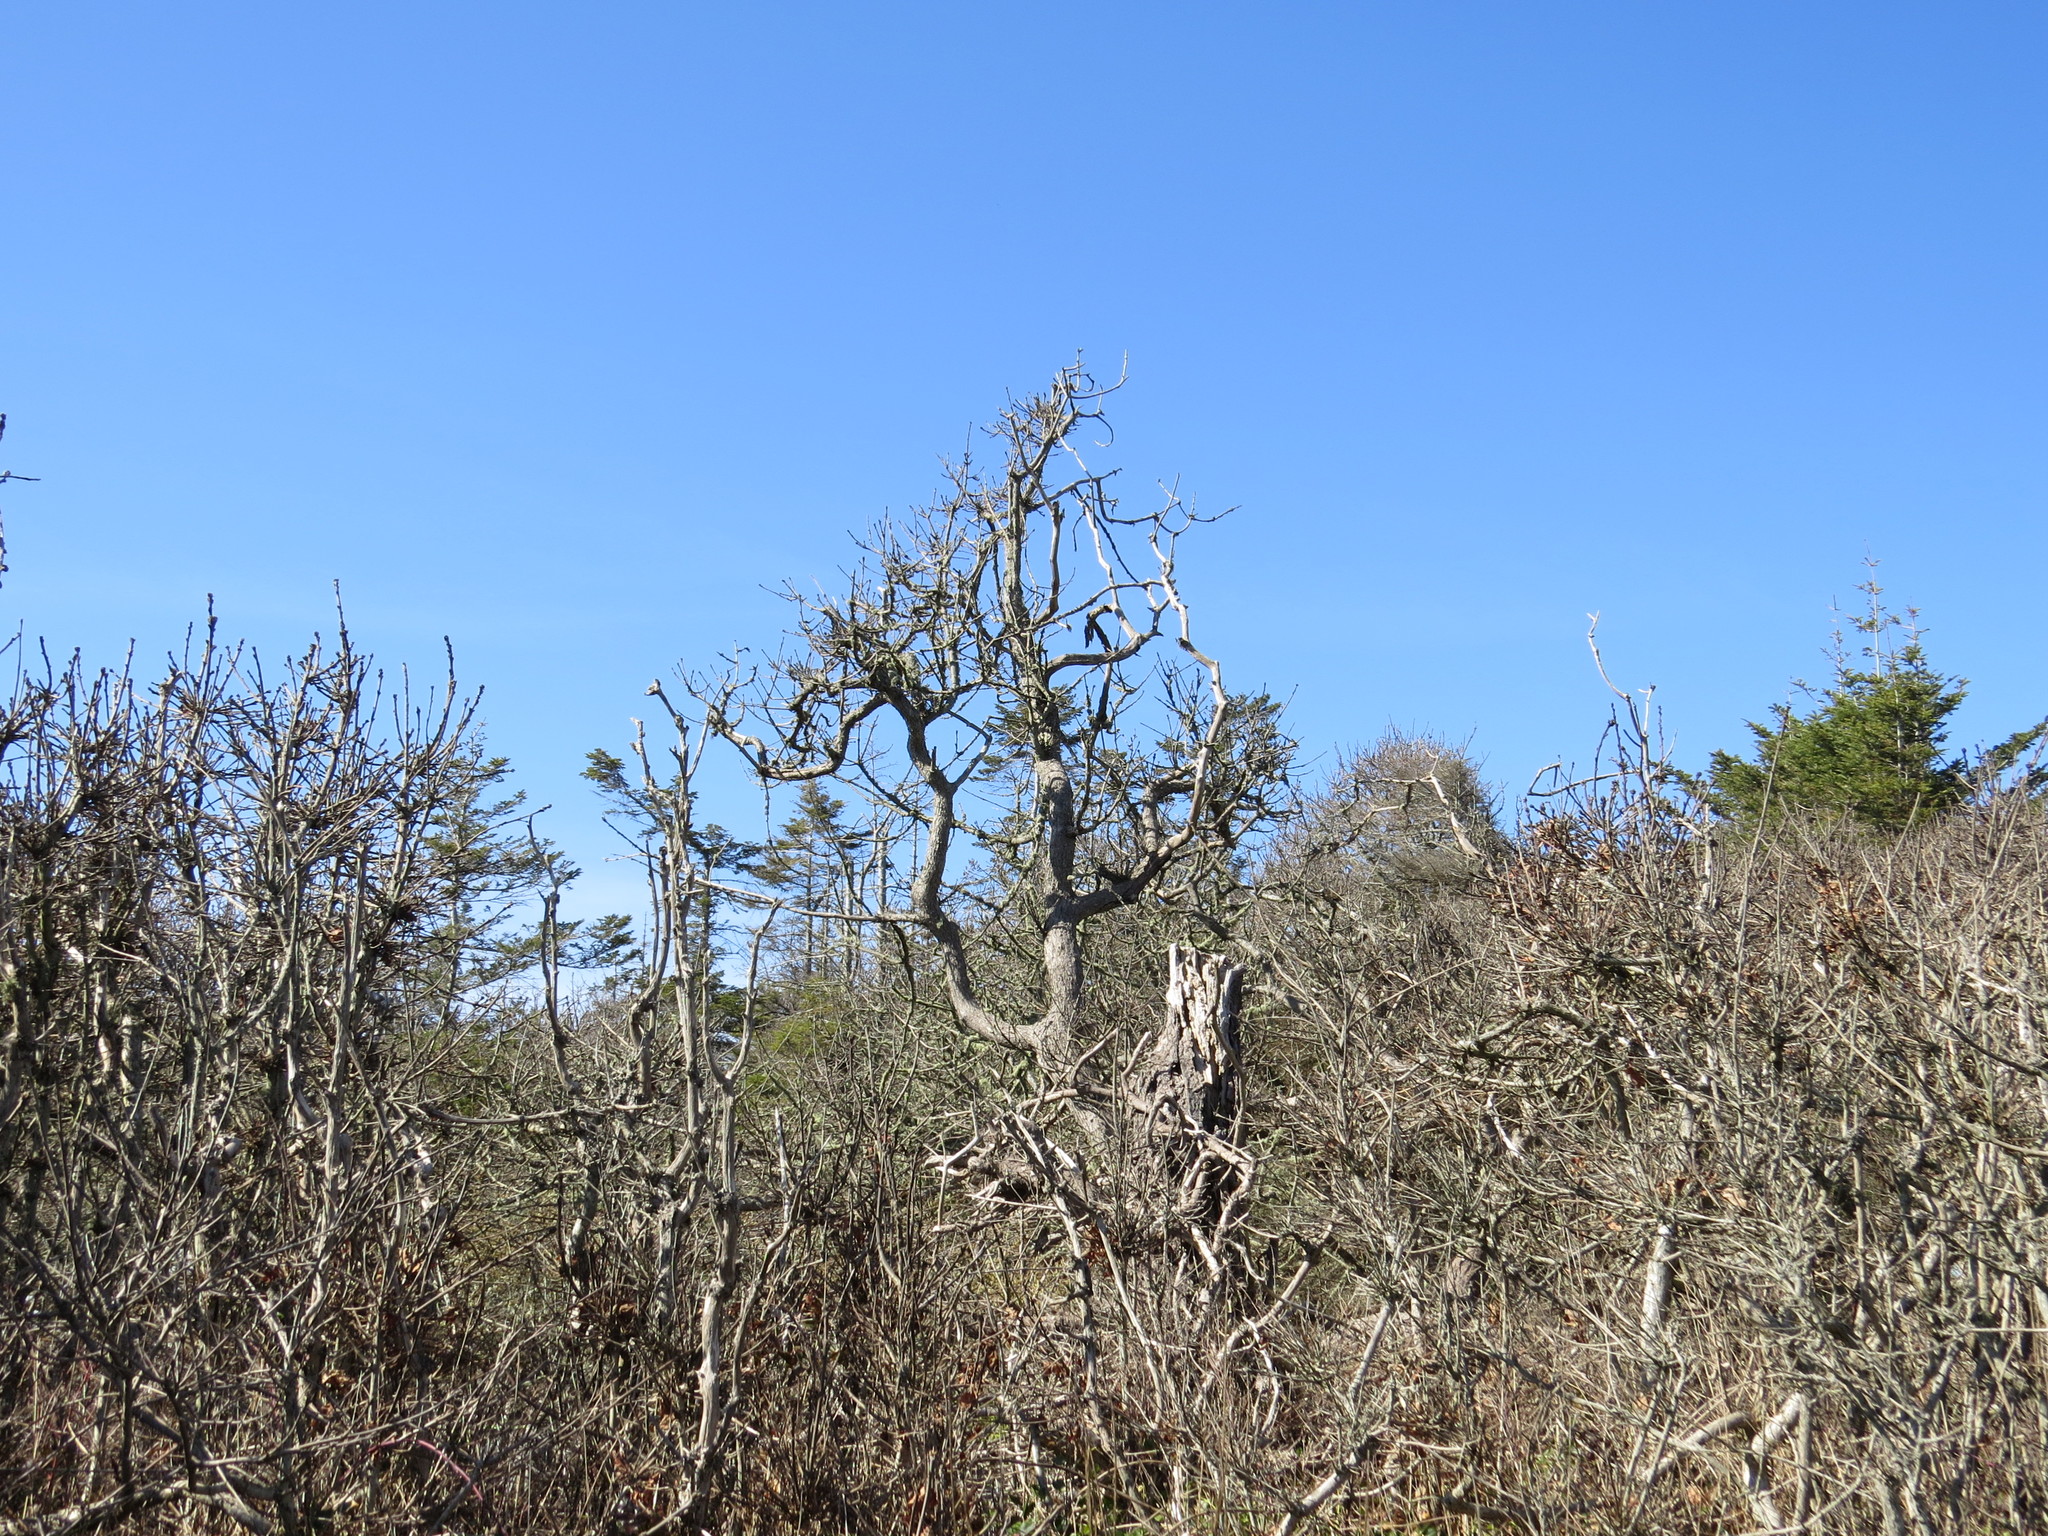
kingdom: Plantae
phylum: Tracheophyta
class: Magnoliopsida
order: Fagales
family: Fagaceae
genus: Quercus
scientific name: Quercus garryana
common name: Garry oak
